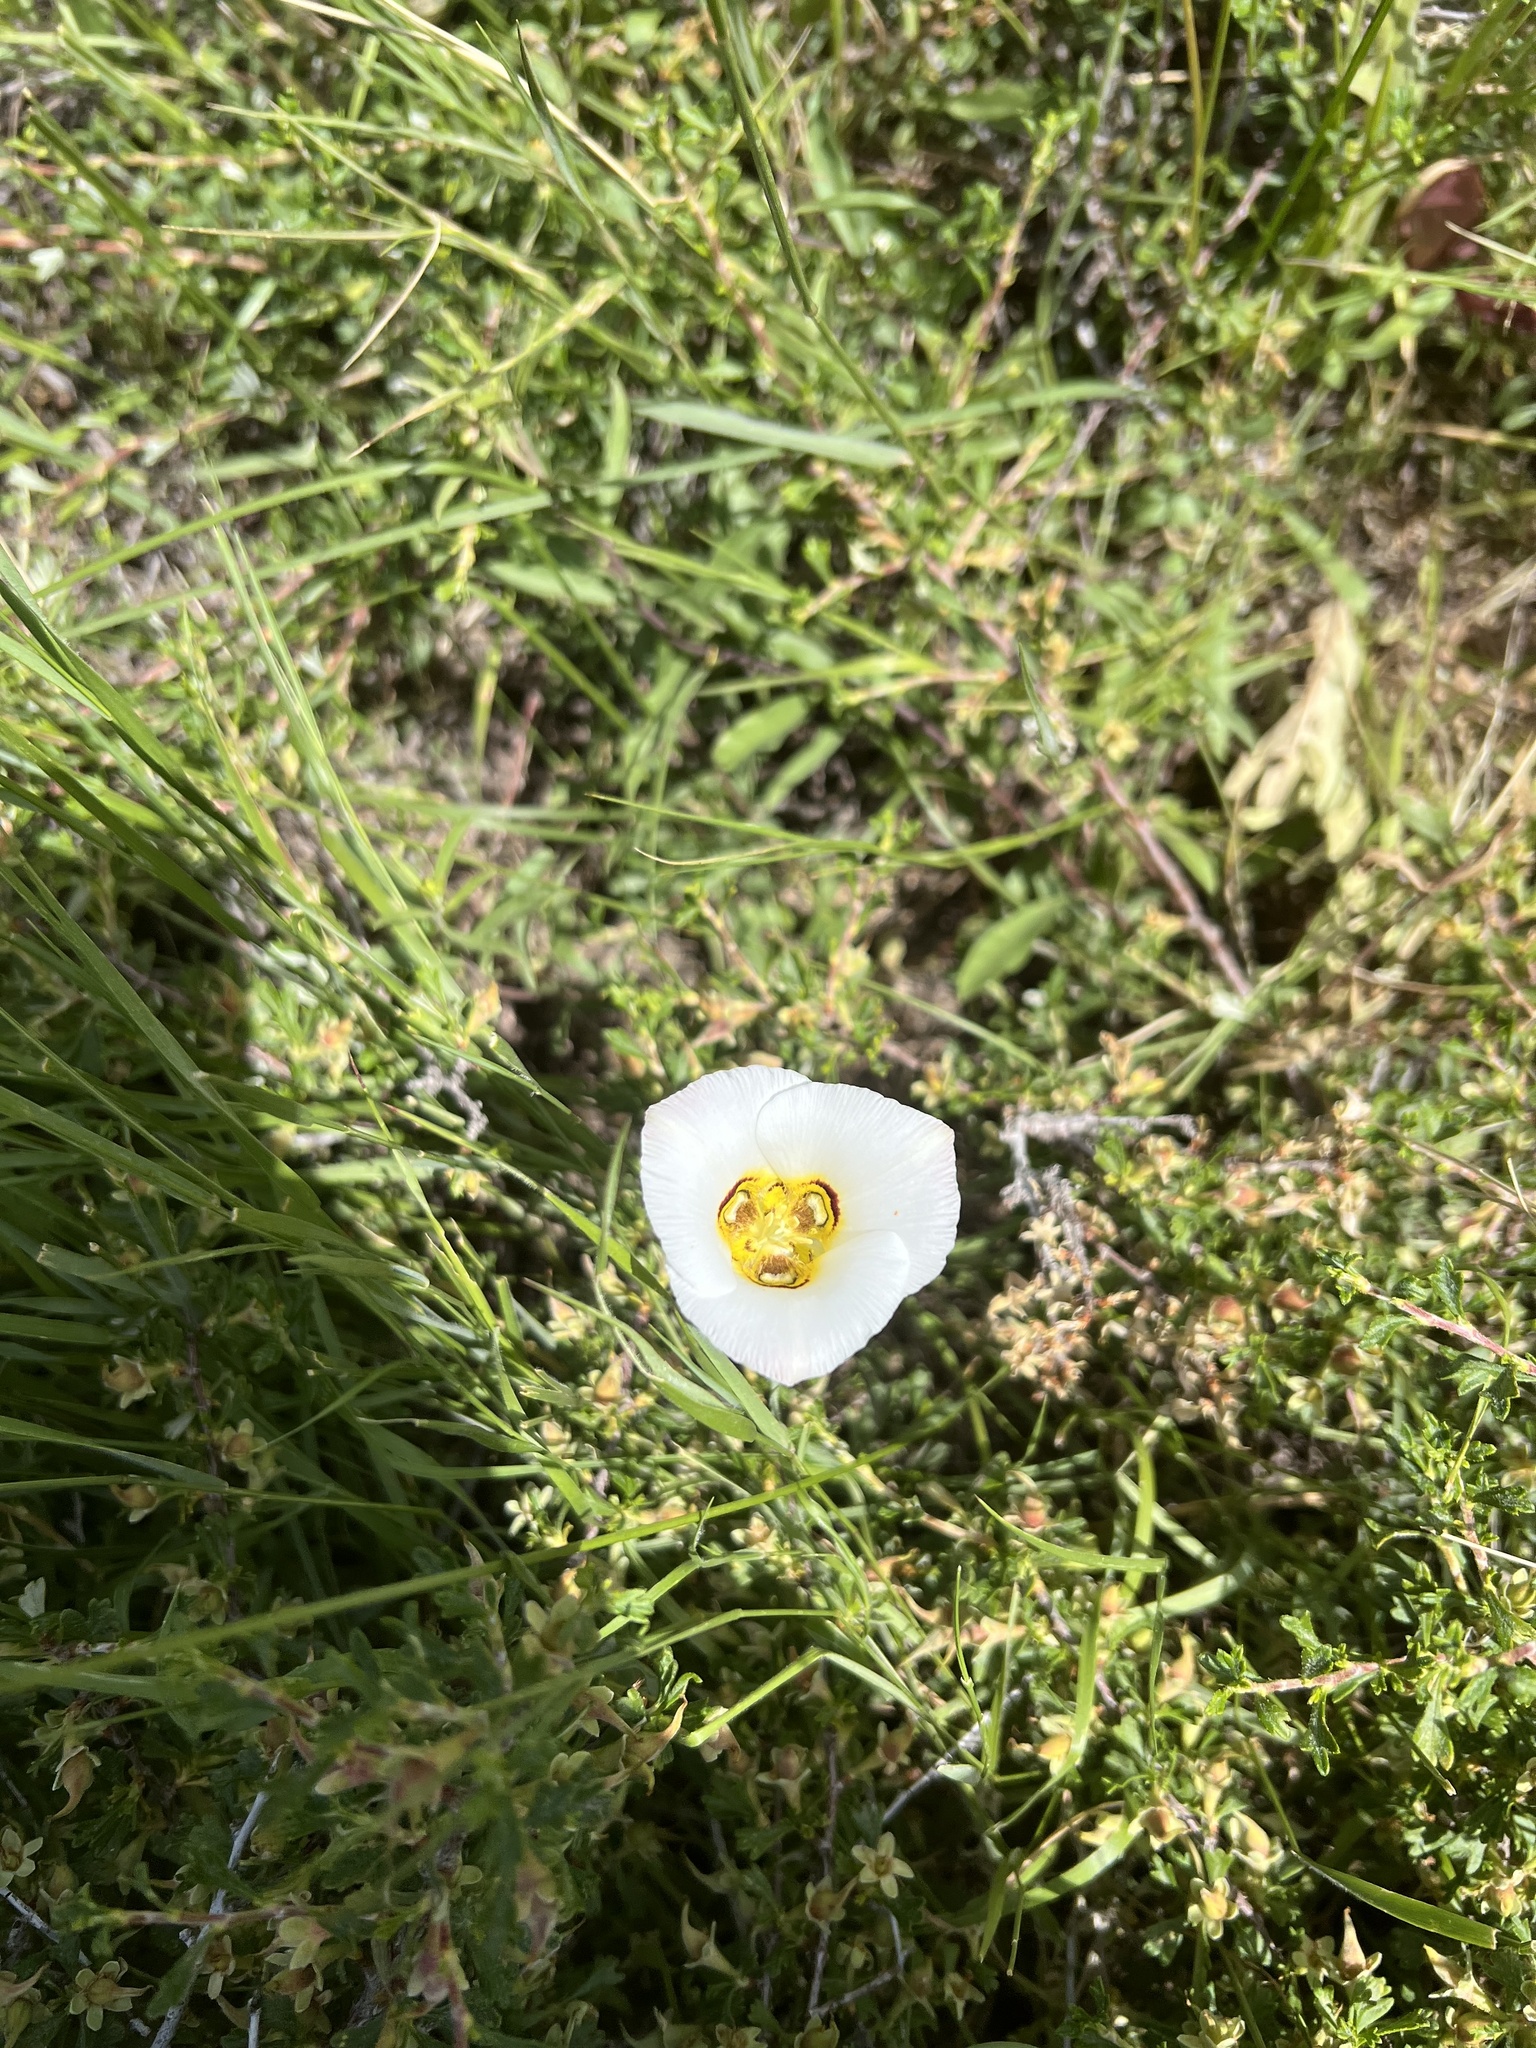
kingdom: Plantae
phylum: Tracheophyta
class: Liliopsida
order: Liliales
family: Liliaceae
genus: Calochortus
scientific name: Calochortus nuttallii
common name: Sego-lily
